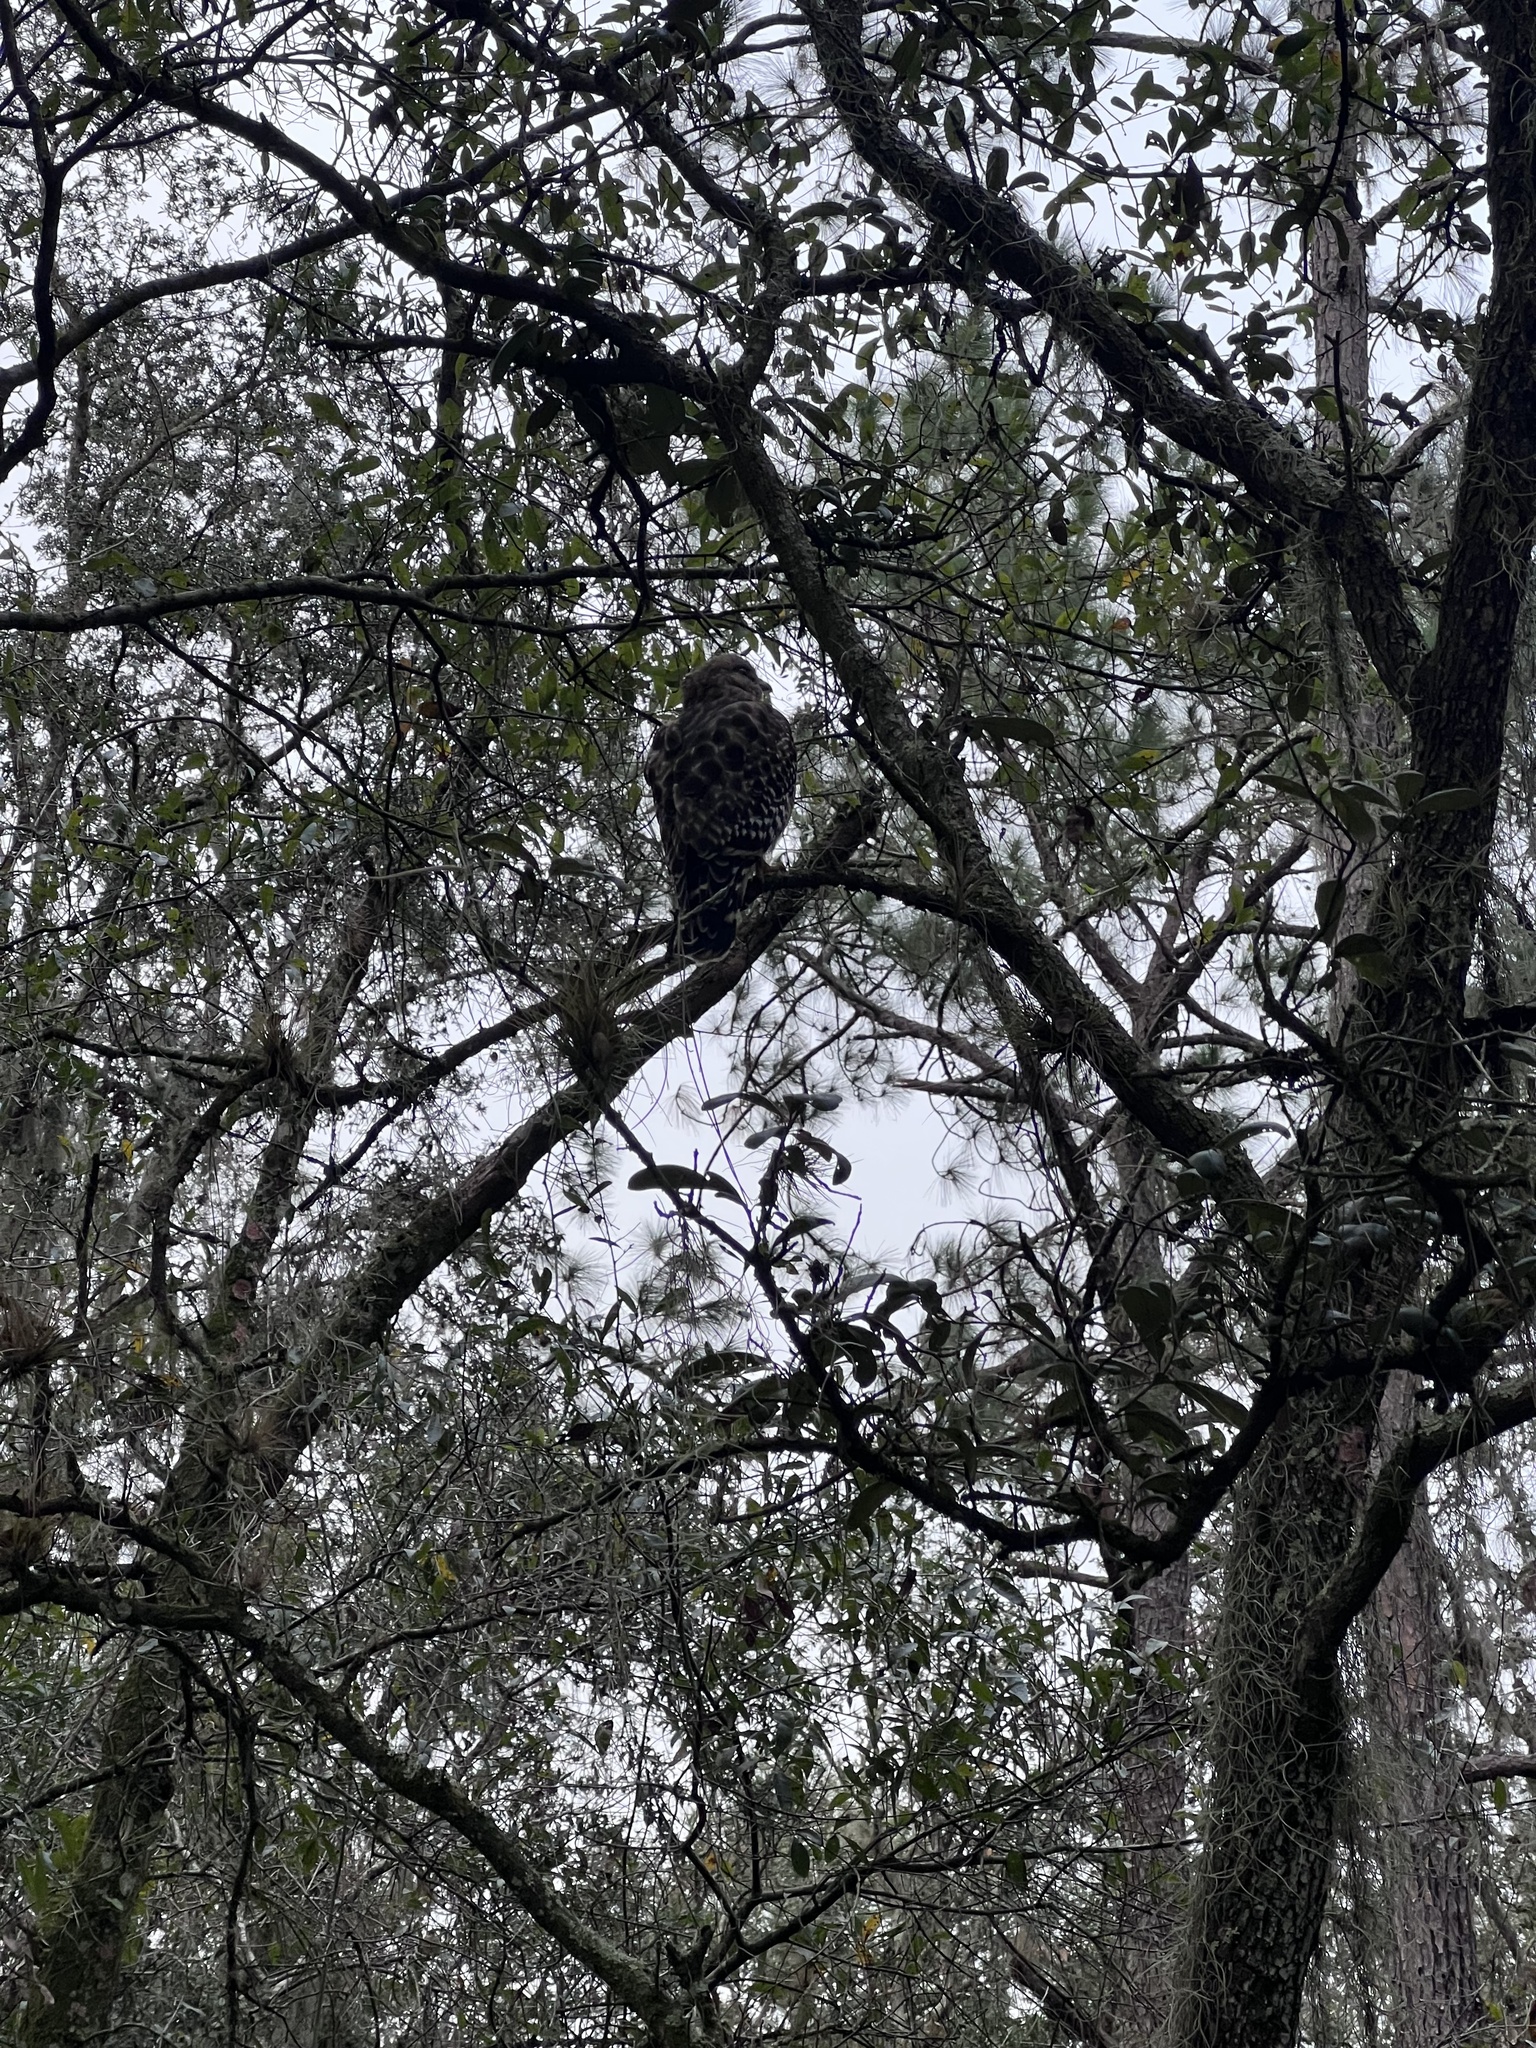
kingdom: Animalia
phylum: Chordata
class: Aves
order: Accipitriformes
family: Accipitridae
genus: Buteo
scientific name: Buteo lineatus
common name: Red-shouldered hawk
